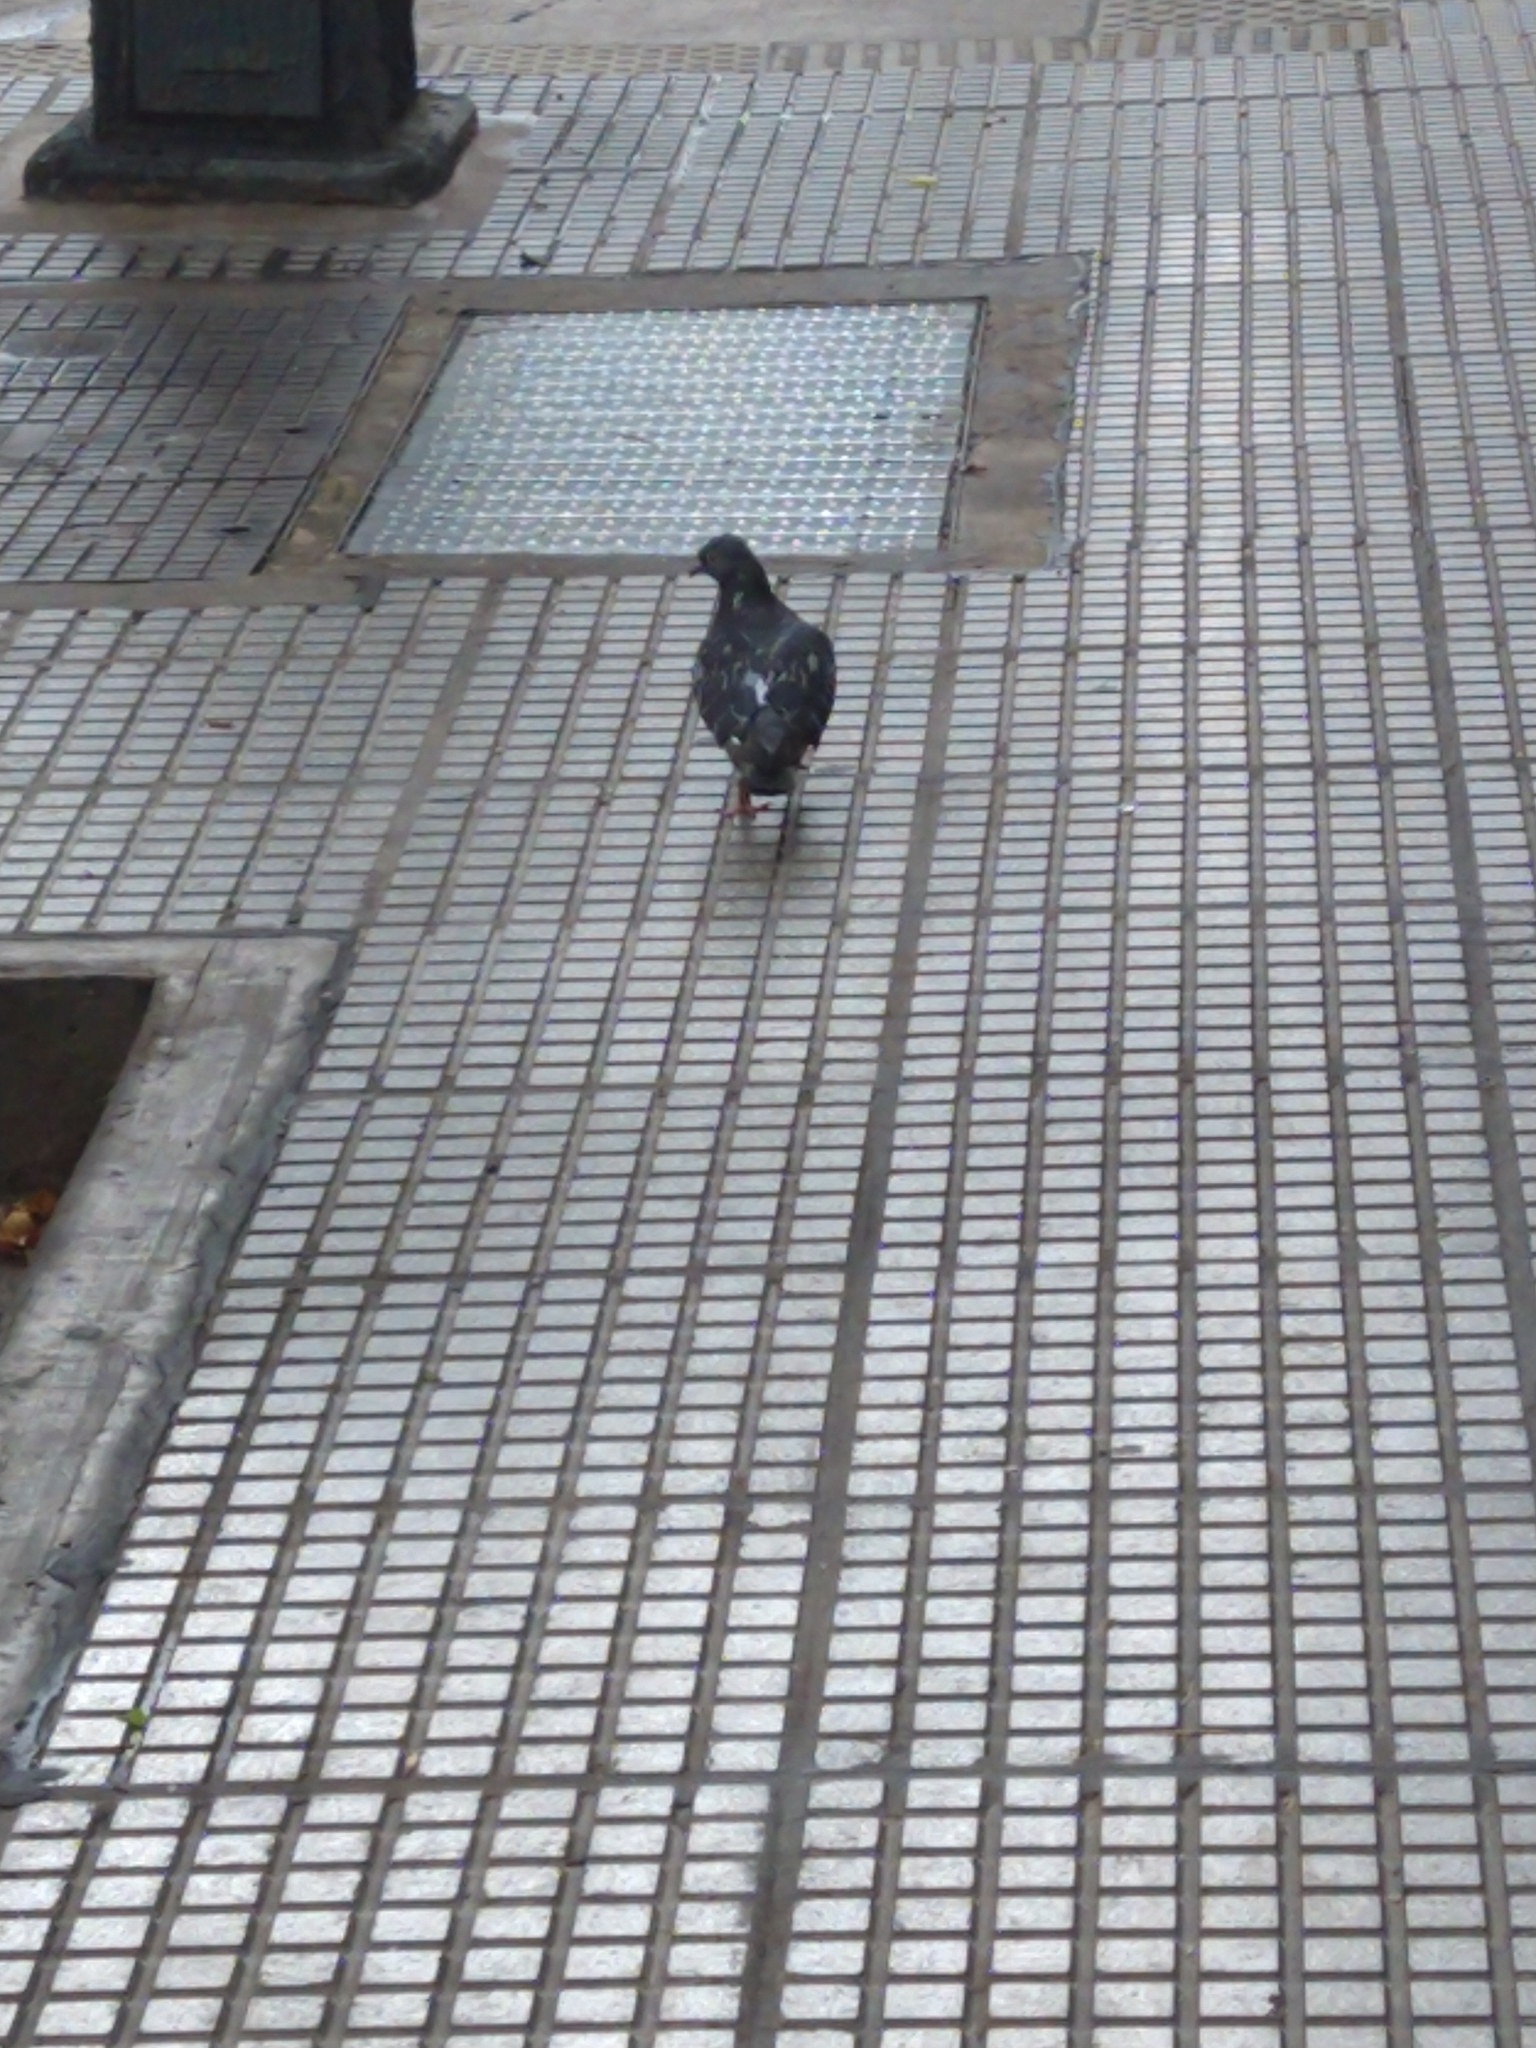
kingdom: Animalia
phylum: Chordata
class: Aves
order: Columbiformes
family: Columbidae
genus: Columba
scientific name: Columba livia
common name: Rock pigeon
